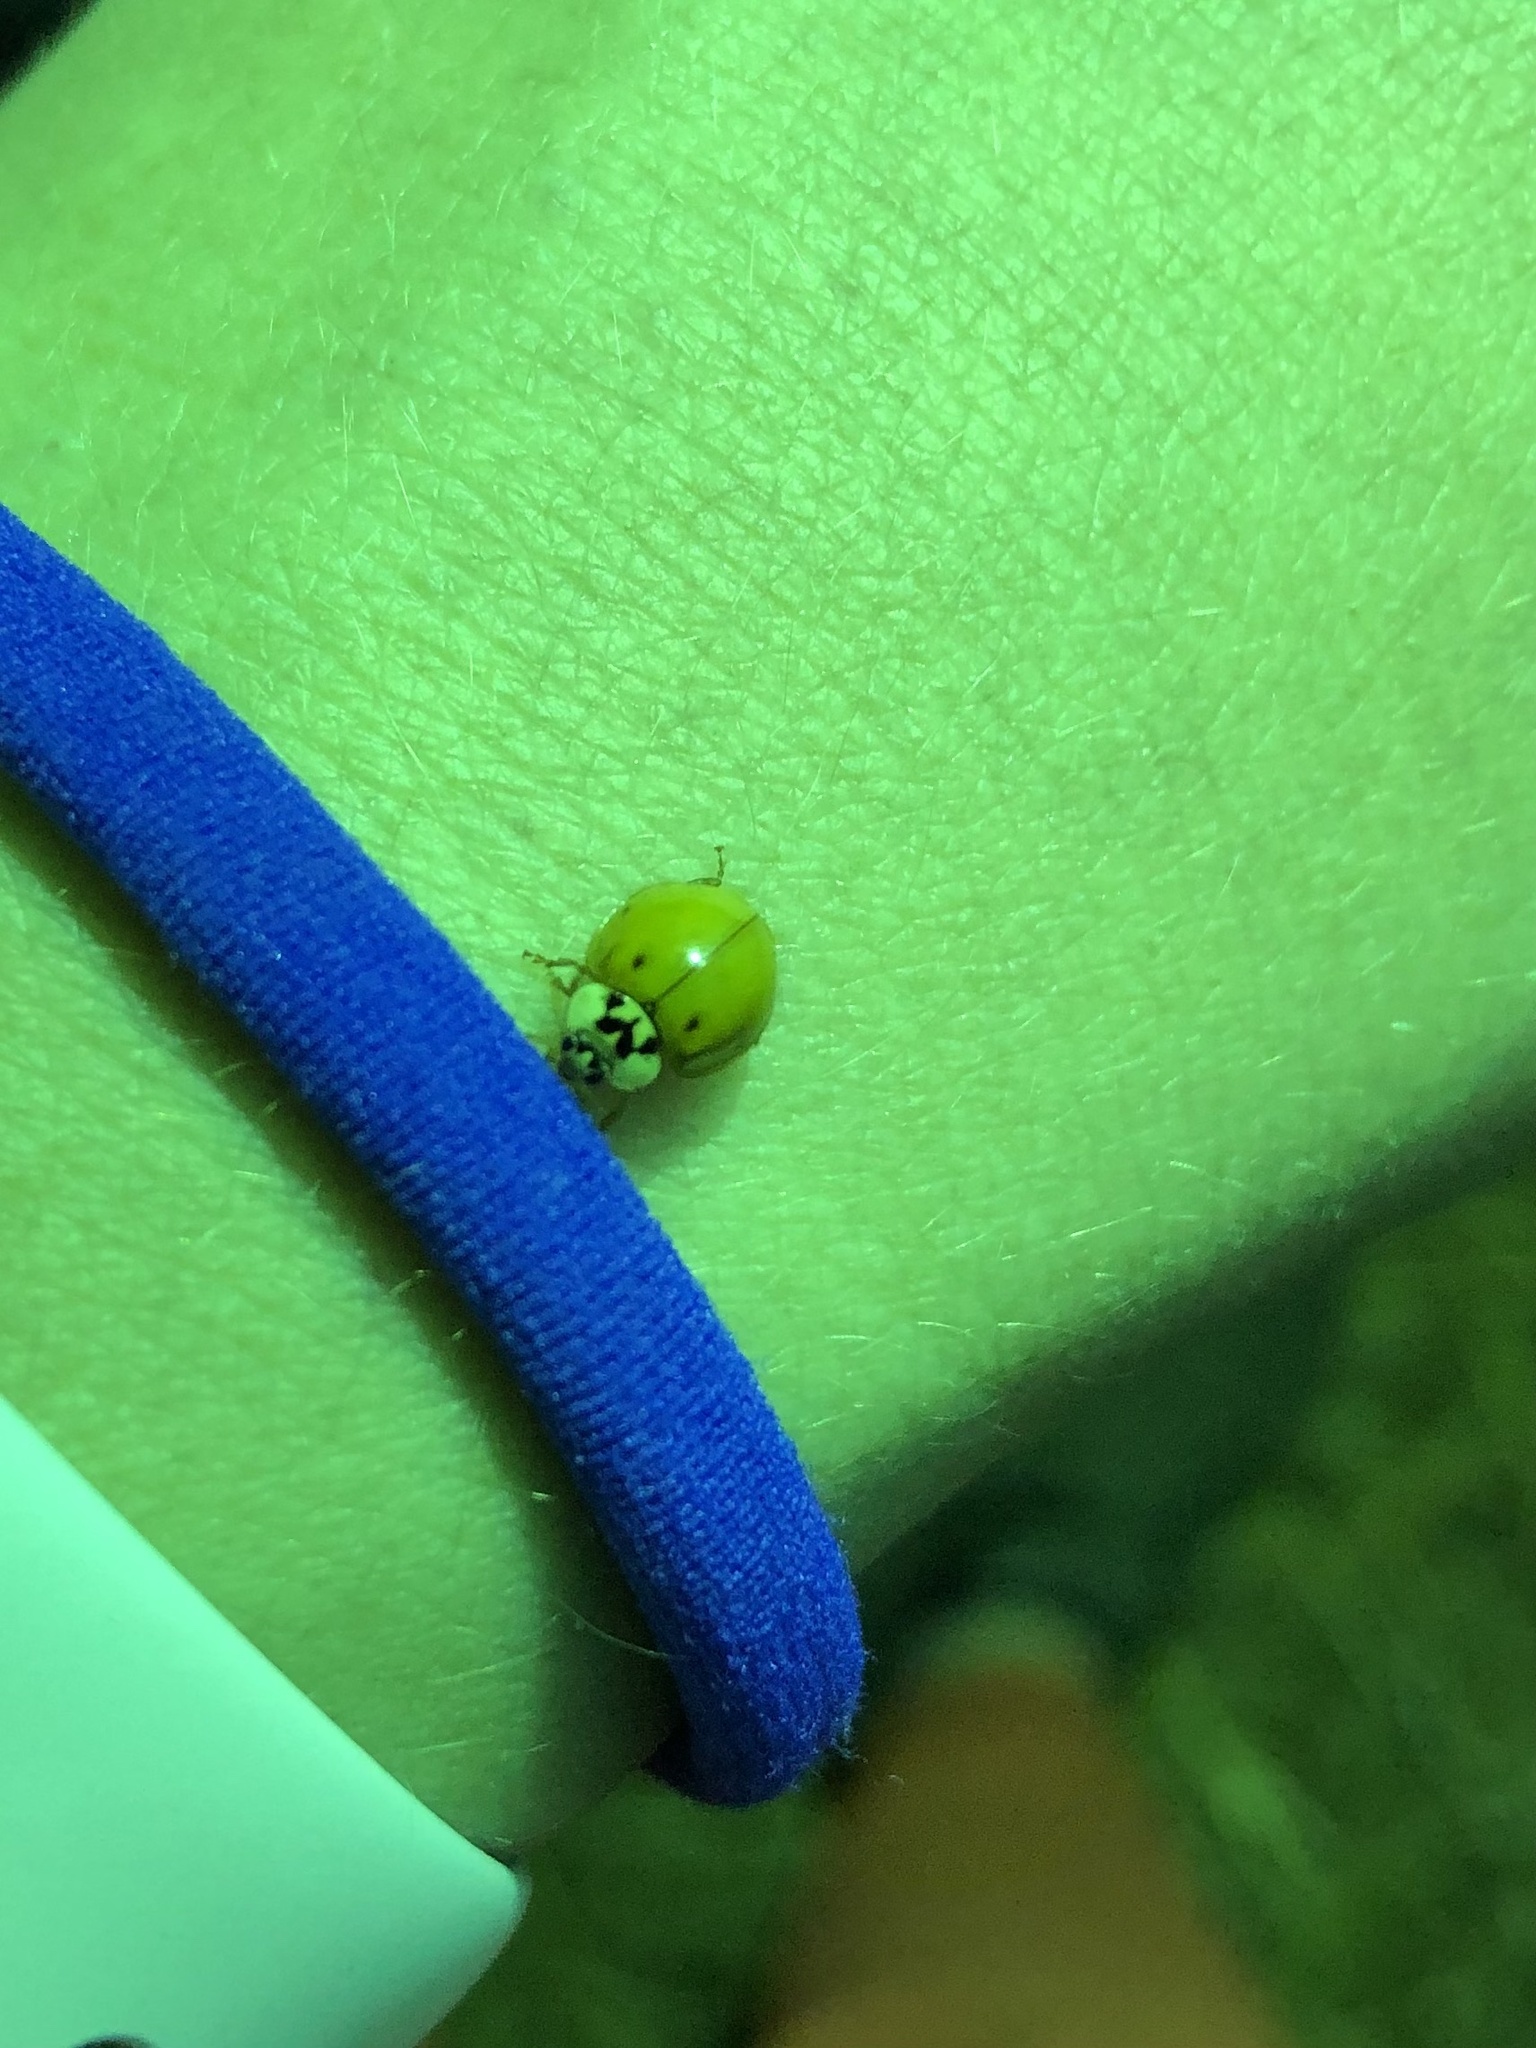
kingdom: Animalia
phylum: Arthropoda
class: Insecta
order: Coleoptera
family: Coccinellidae
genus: Harmonia
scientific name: Harmonia axyridis
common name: Harlequin ladybird
